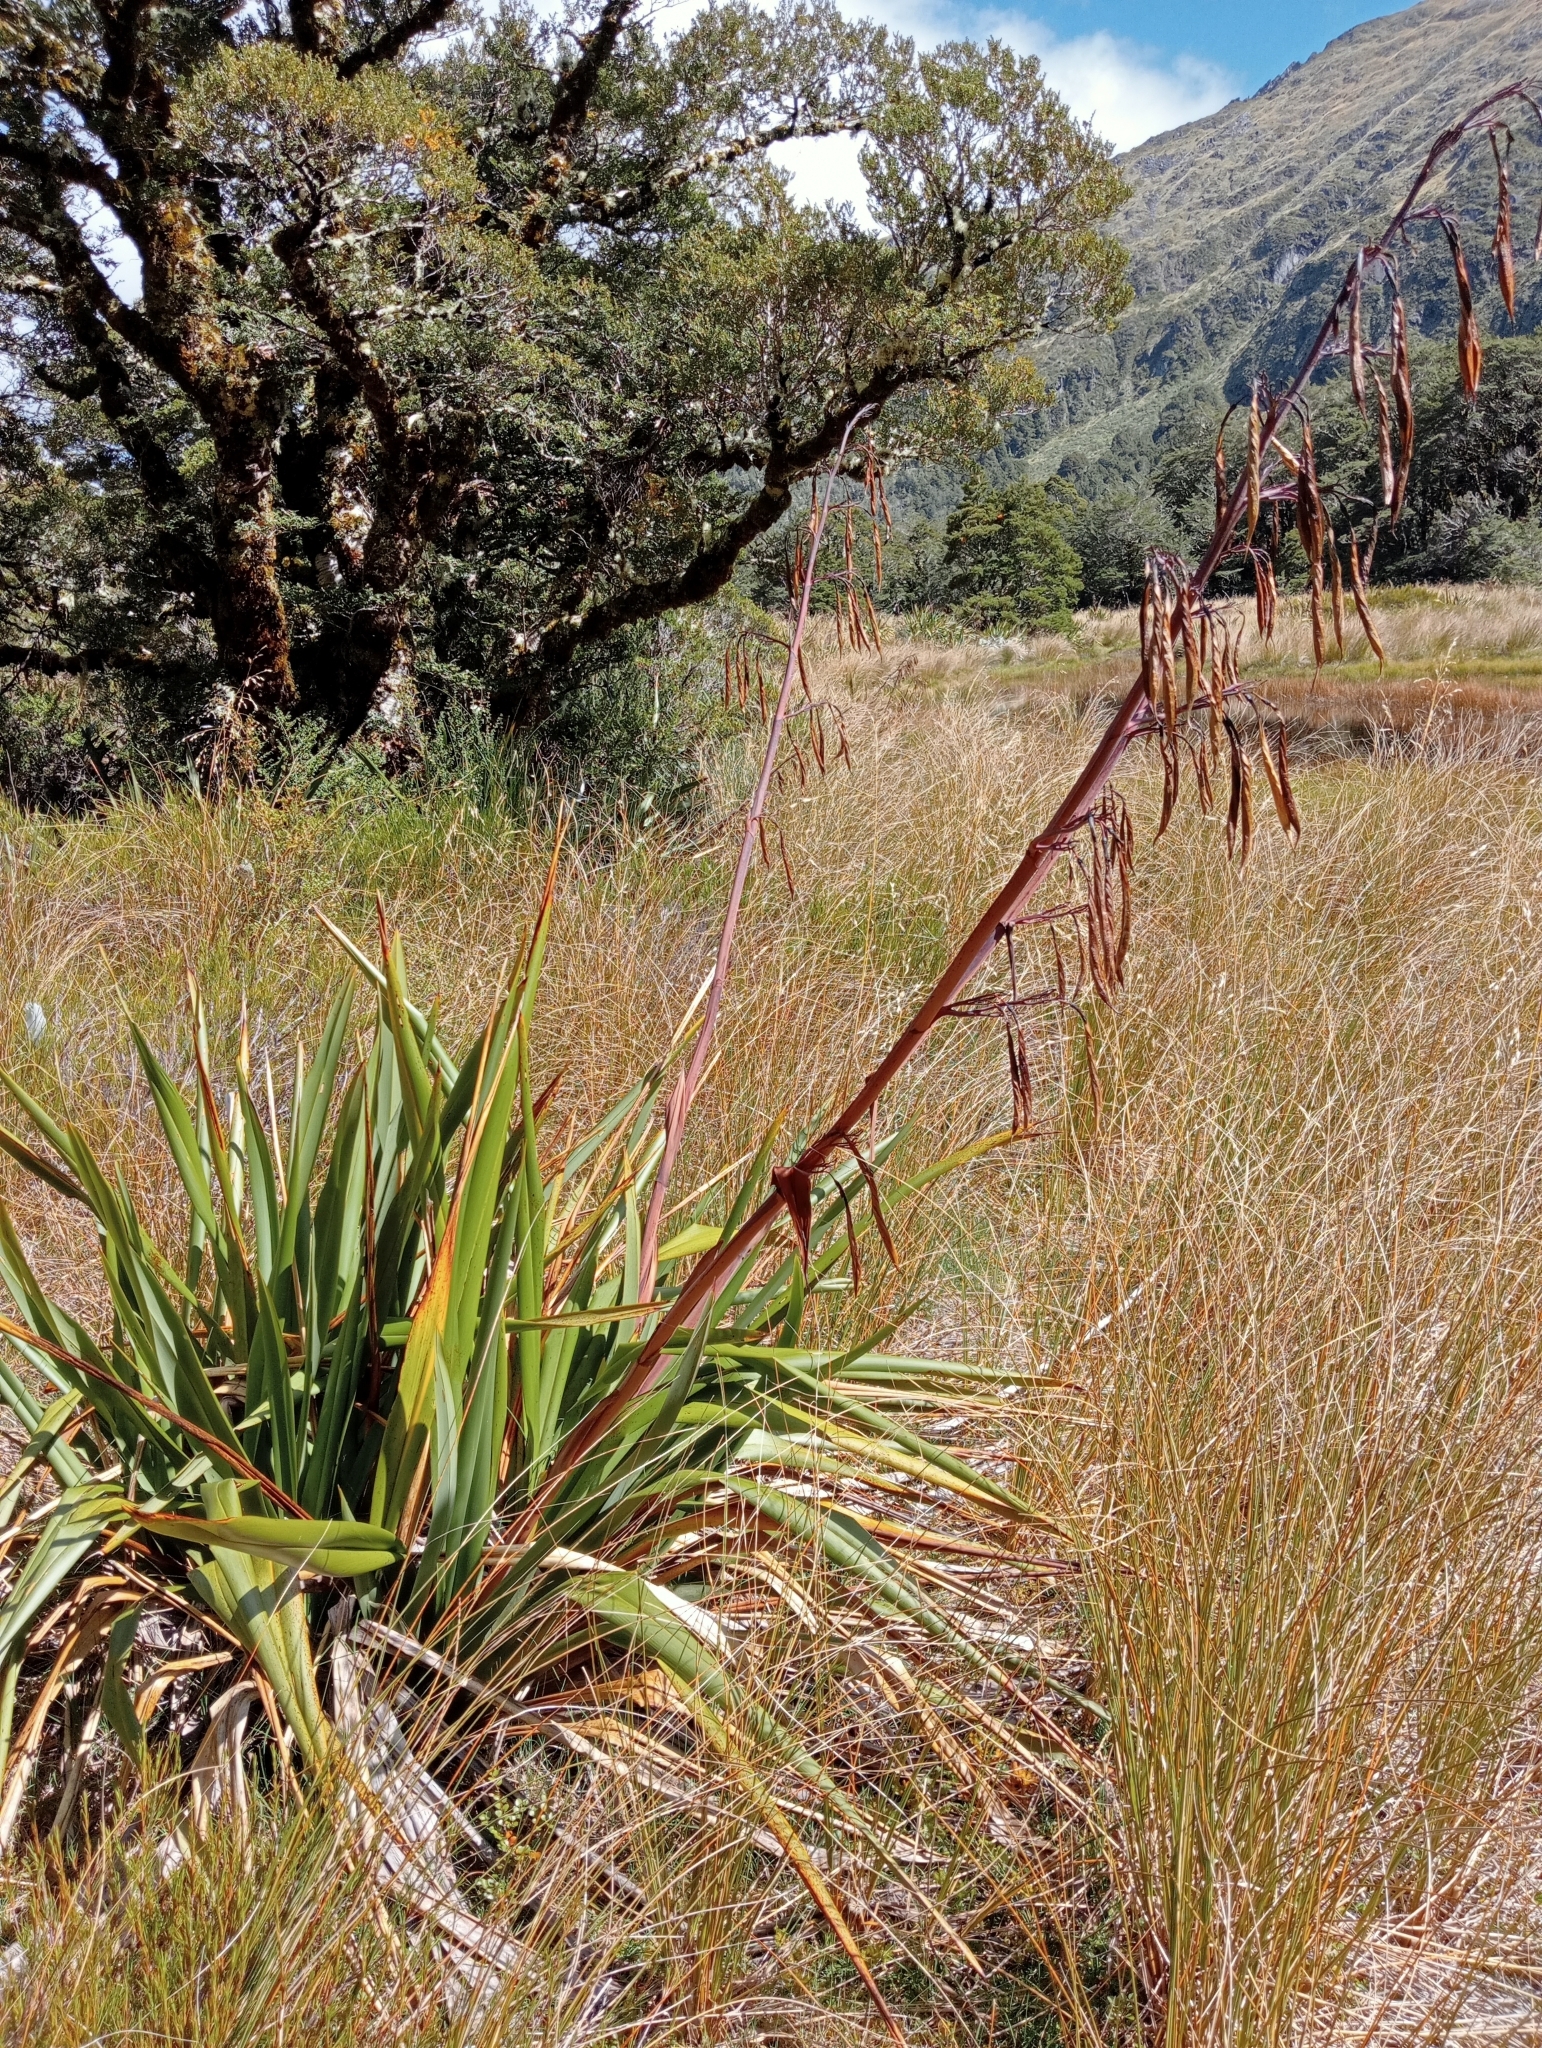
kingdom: Plantae
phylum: Tracheophyta
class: Liliopsida
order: Asparagales
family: Asphodelaceae
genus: Phormium
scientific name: Phormium colensoi
